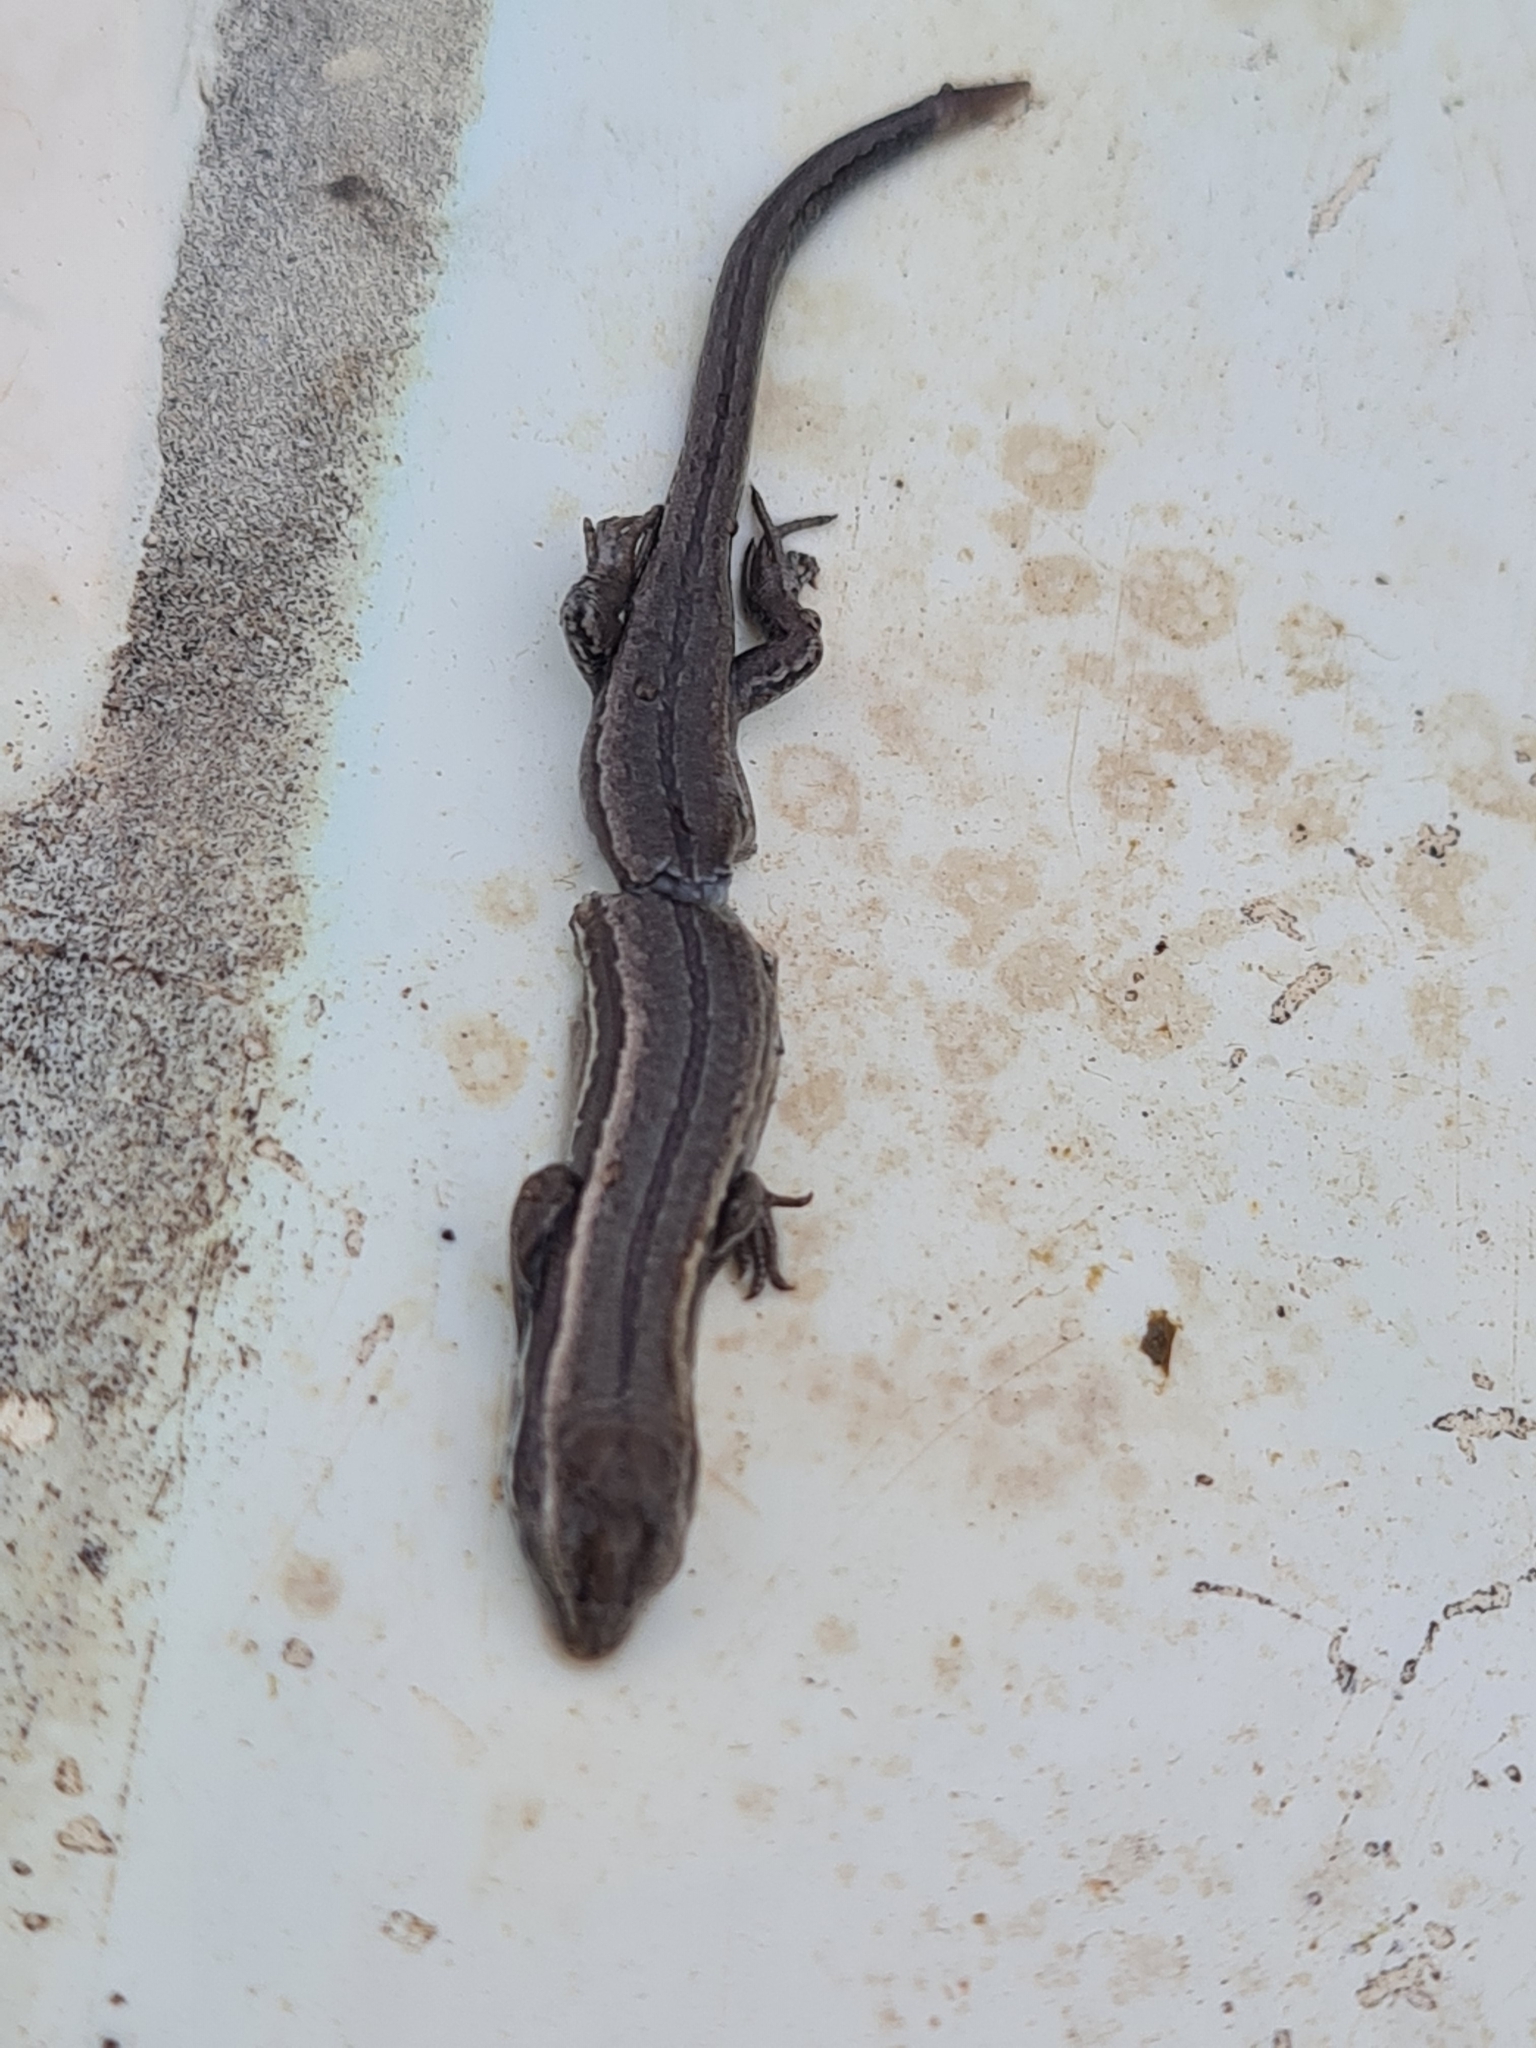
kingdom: Animalia
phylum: Chordata
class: Squamata
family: Scincidae
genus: Oligosoma
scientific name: Oligosoma polychroma
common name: Common new zealand skink
